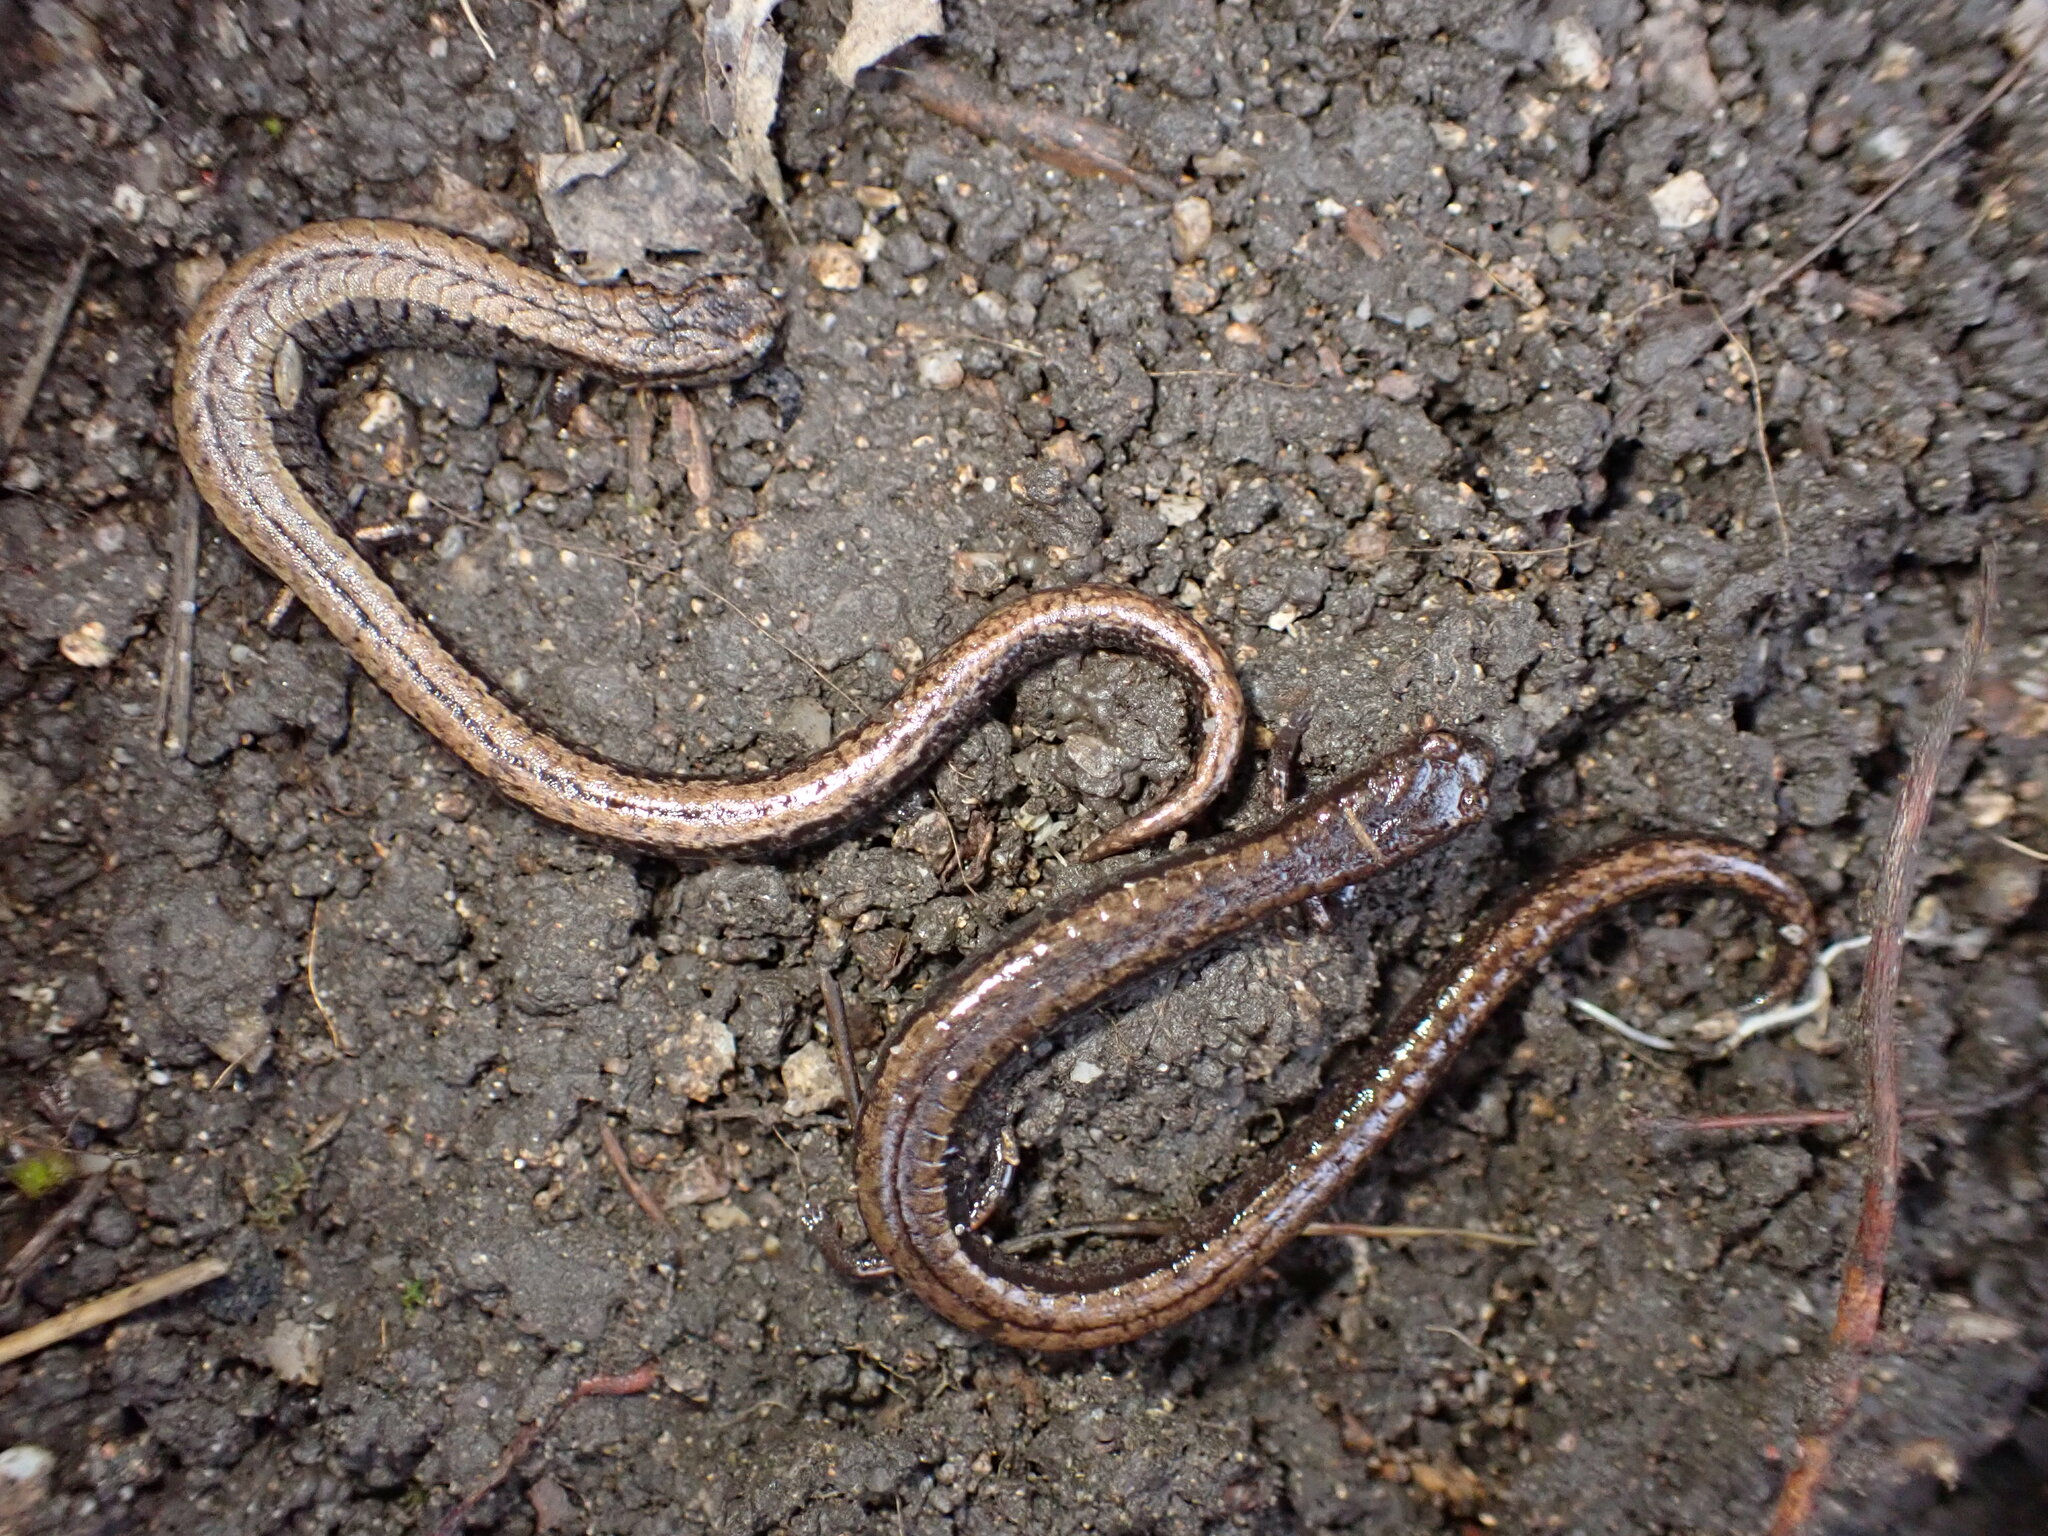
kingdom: Animalia
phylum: Chordata
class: Amphibia
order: Caudata
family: Plethodontidae
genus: Batrachoseps
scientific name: Batrachoseps attenuatus
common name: California slender salamander
